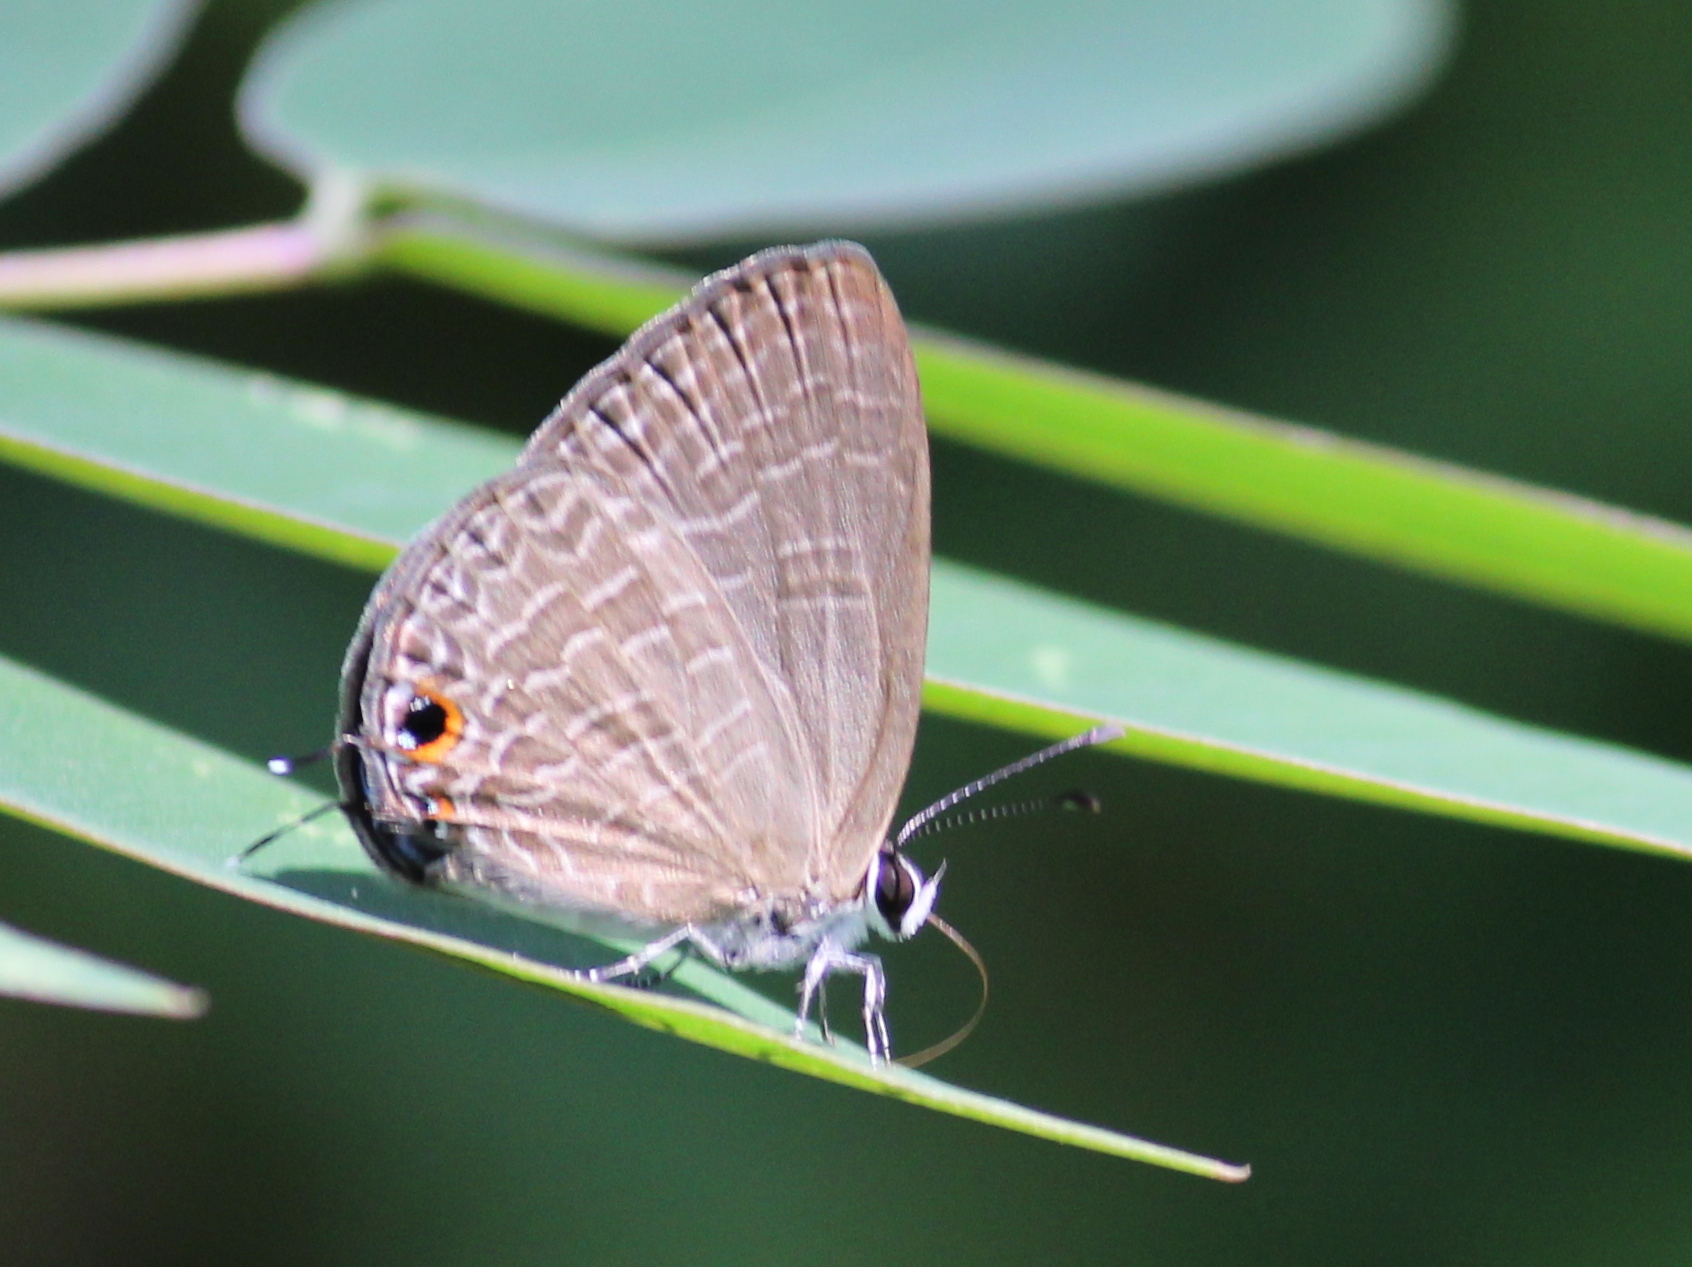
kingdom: Animalia
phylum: Arthropoda
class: Insecta
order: Lepidoptera
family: Lycaenidae
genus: Jamides
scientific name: Jamides bochus
